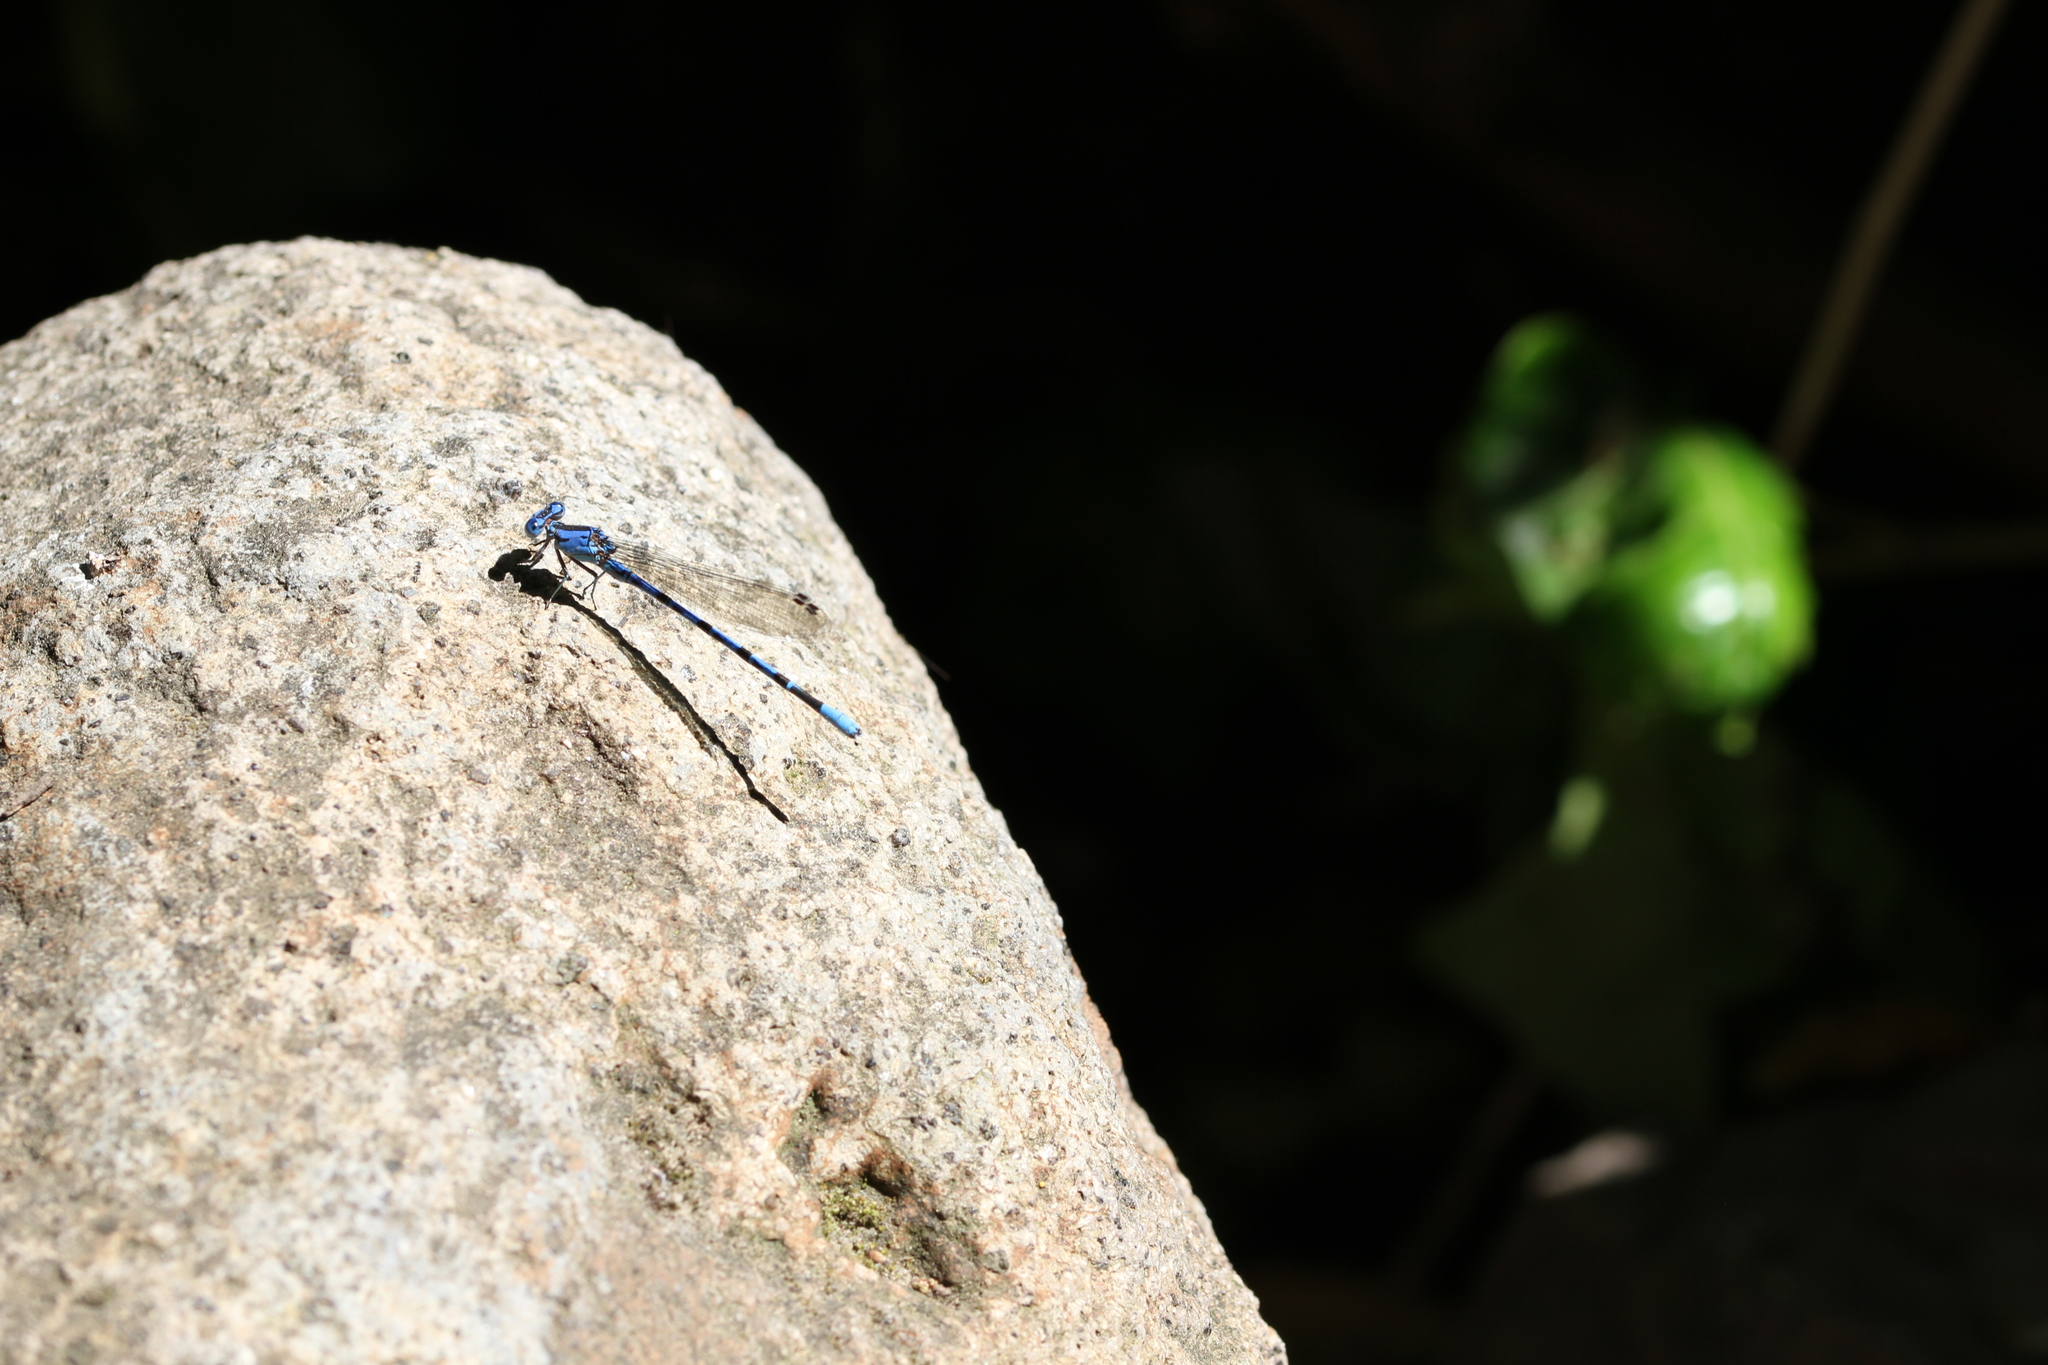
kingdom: Animalia
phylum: Arthropoda
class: Insecta
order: Odonata
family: Coenagrionidae
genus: Argia
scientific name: Argia vivida
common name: Vivid dancer
